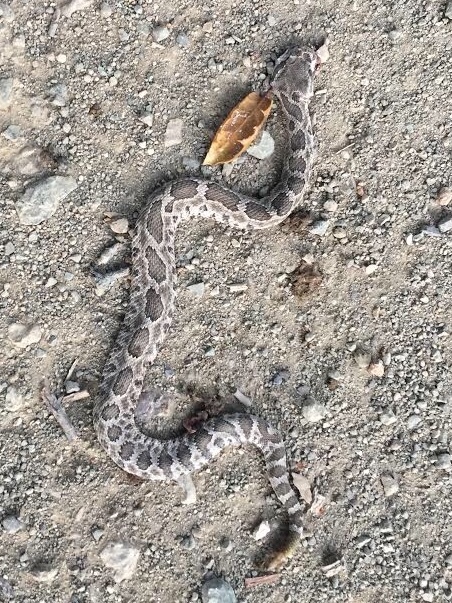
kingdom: Animalia
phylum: Chordata
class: Squamata
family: Viperidae
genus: Crotalus
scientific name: Crotalus oreganus
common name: Abyssus
